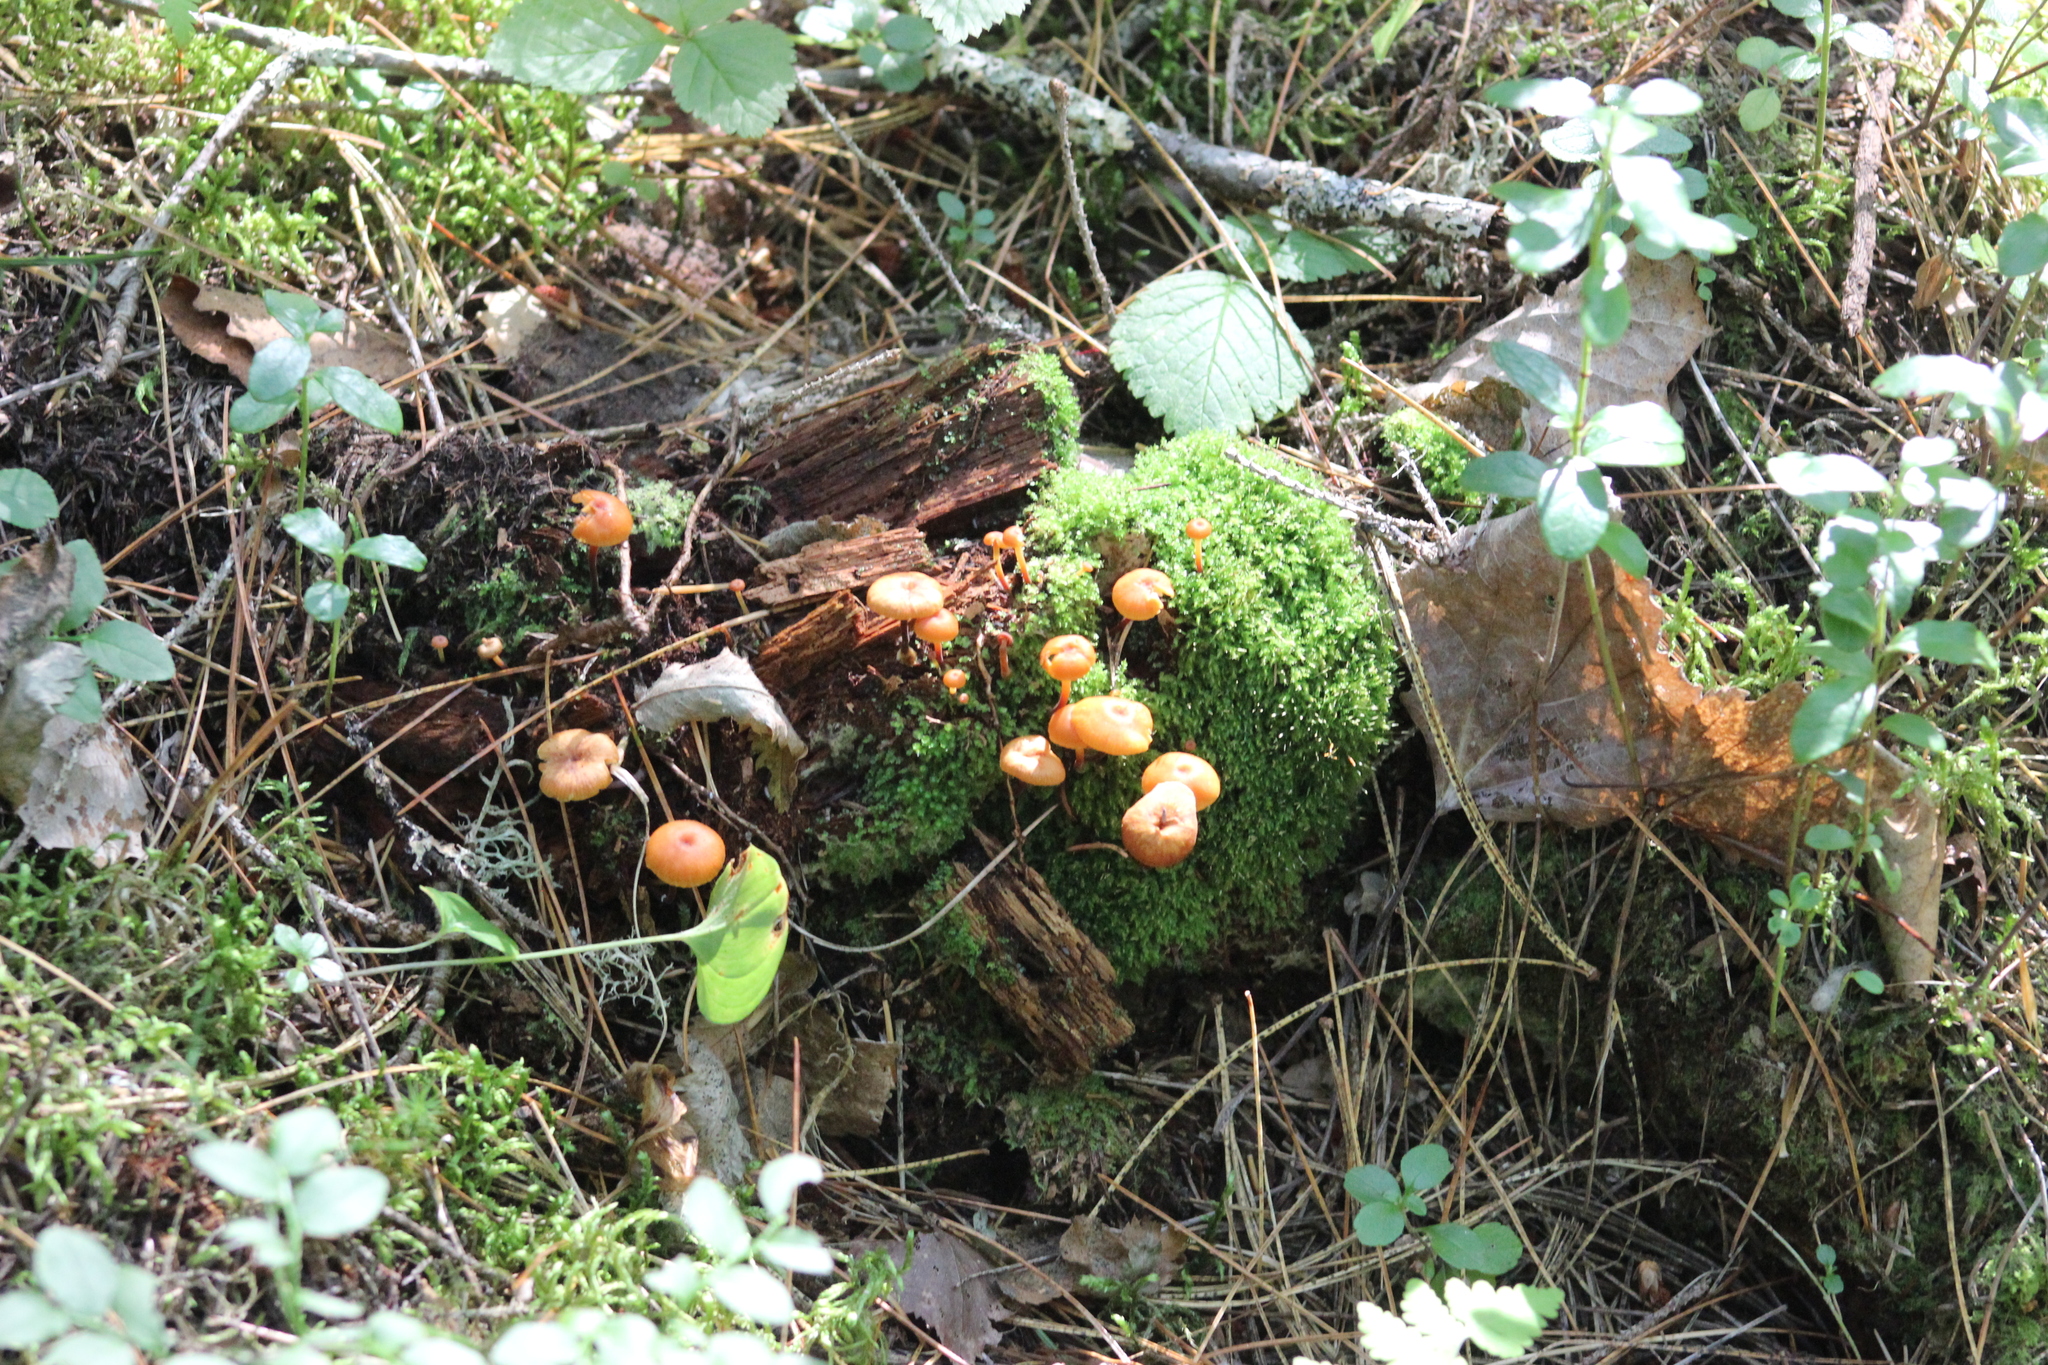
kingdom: Fungi
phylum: Basidiomycota
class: Agaricomycetes
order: Agaricales
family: Mycenaceae
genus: Xeromphalina
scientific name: Xeromphalina campanella
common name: Pinewood gingertail
